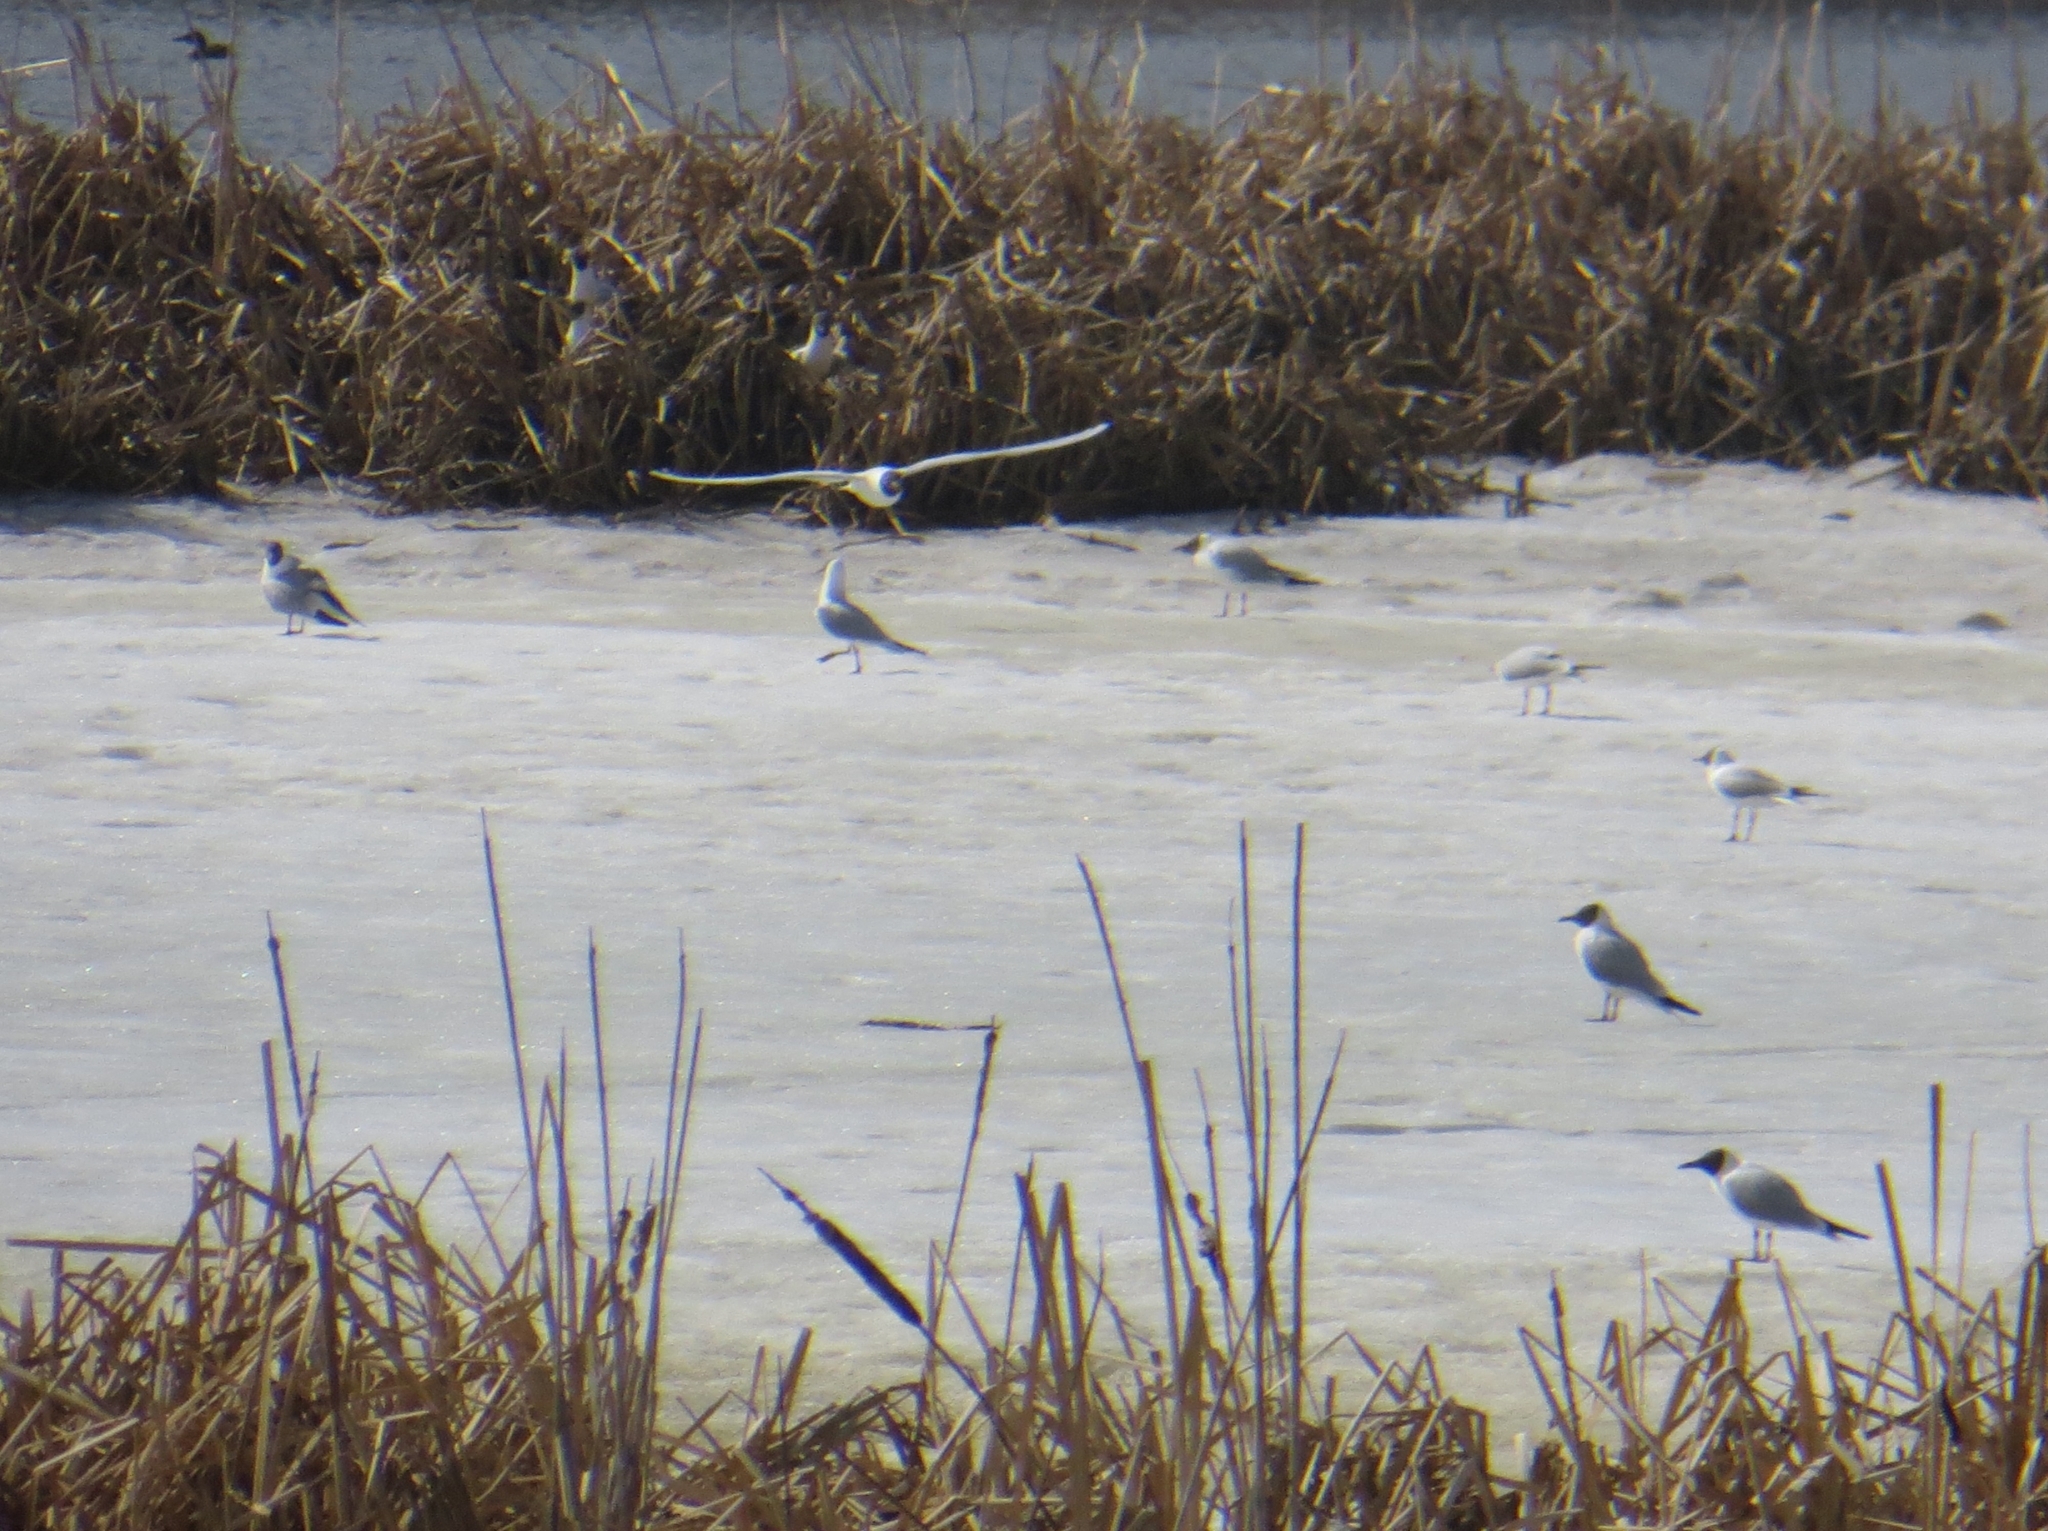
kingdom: Animalia
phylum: Chordata
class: Aves
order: Charadriiformes
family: Laridae
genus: Chroicocephalus
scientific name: Chroicocephalus ridibundus
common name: Black-headed gull
